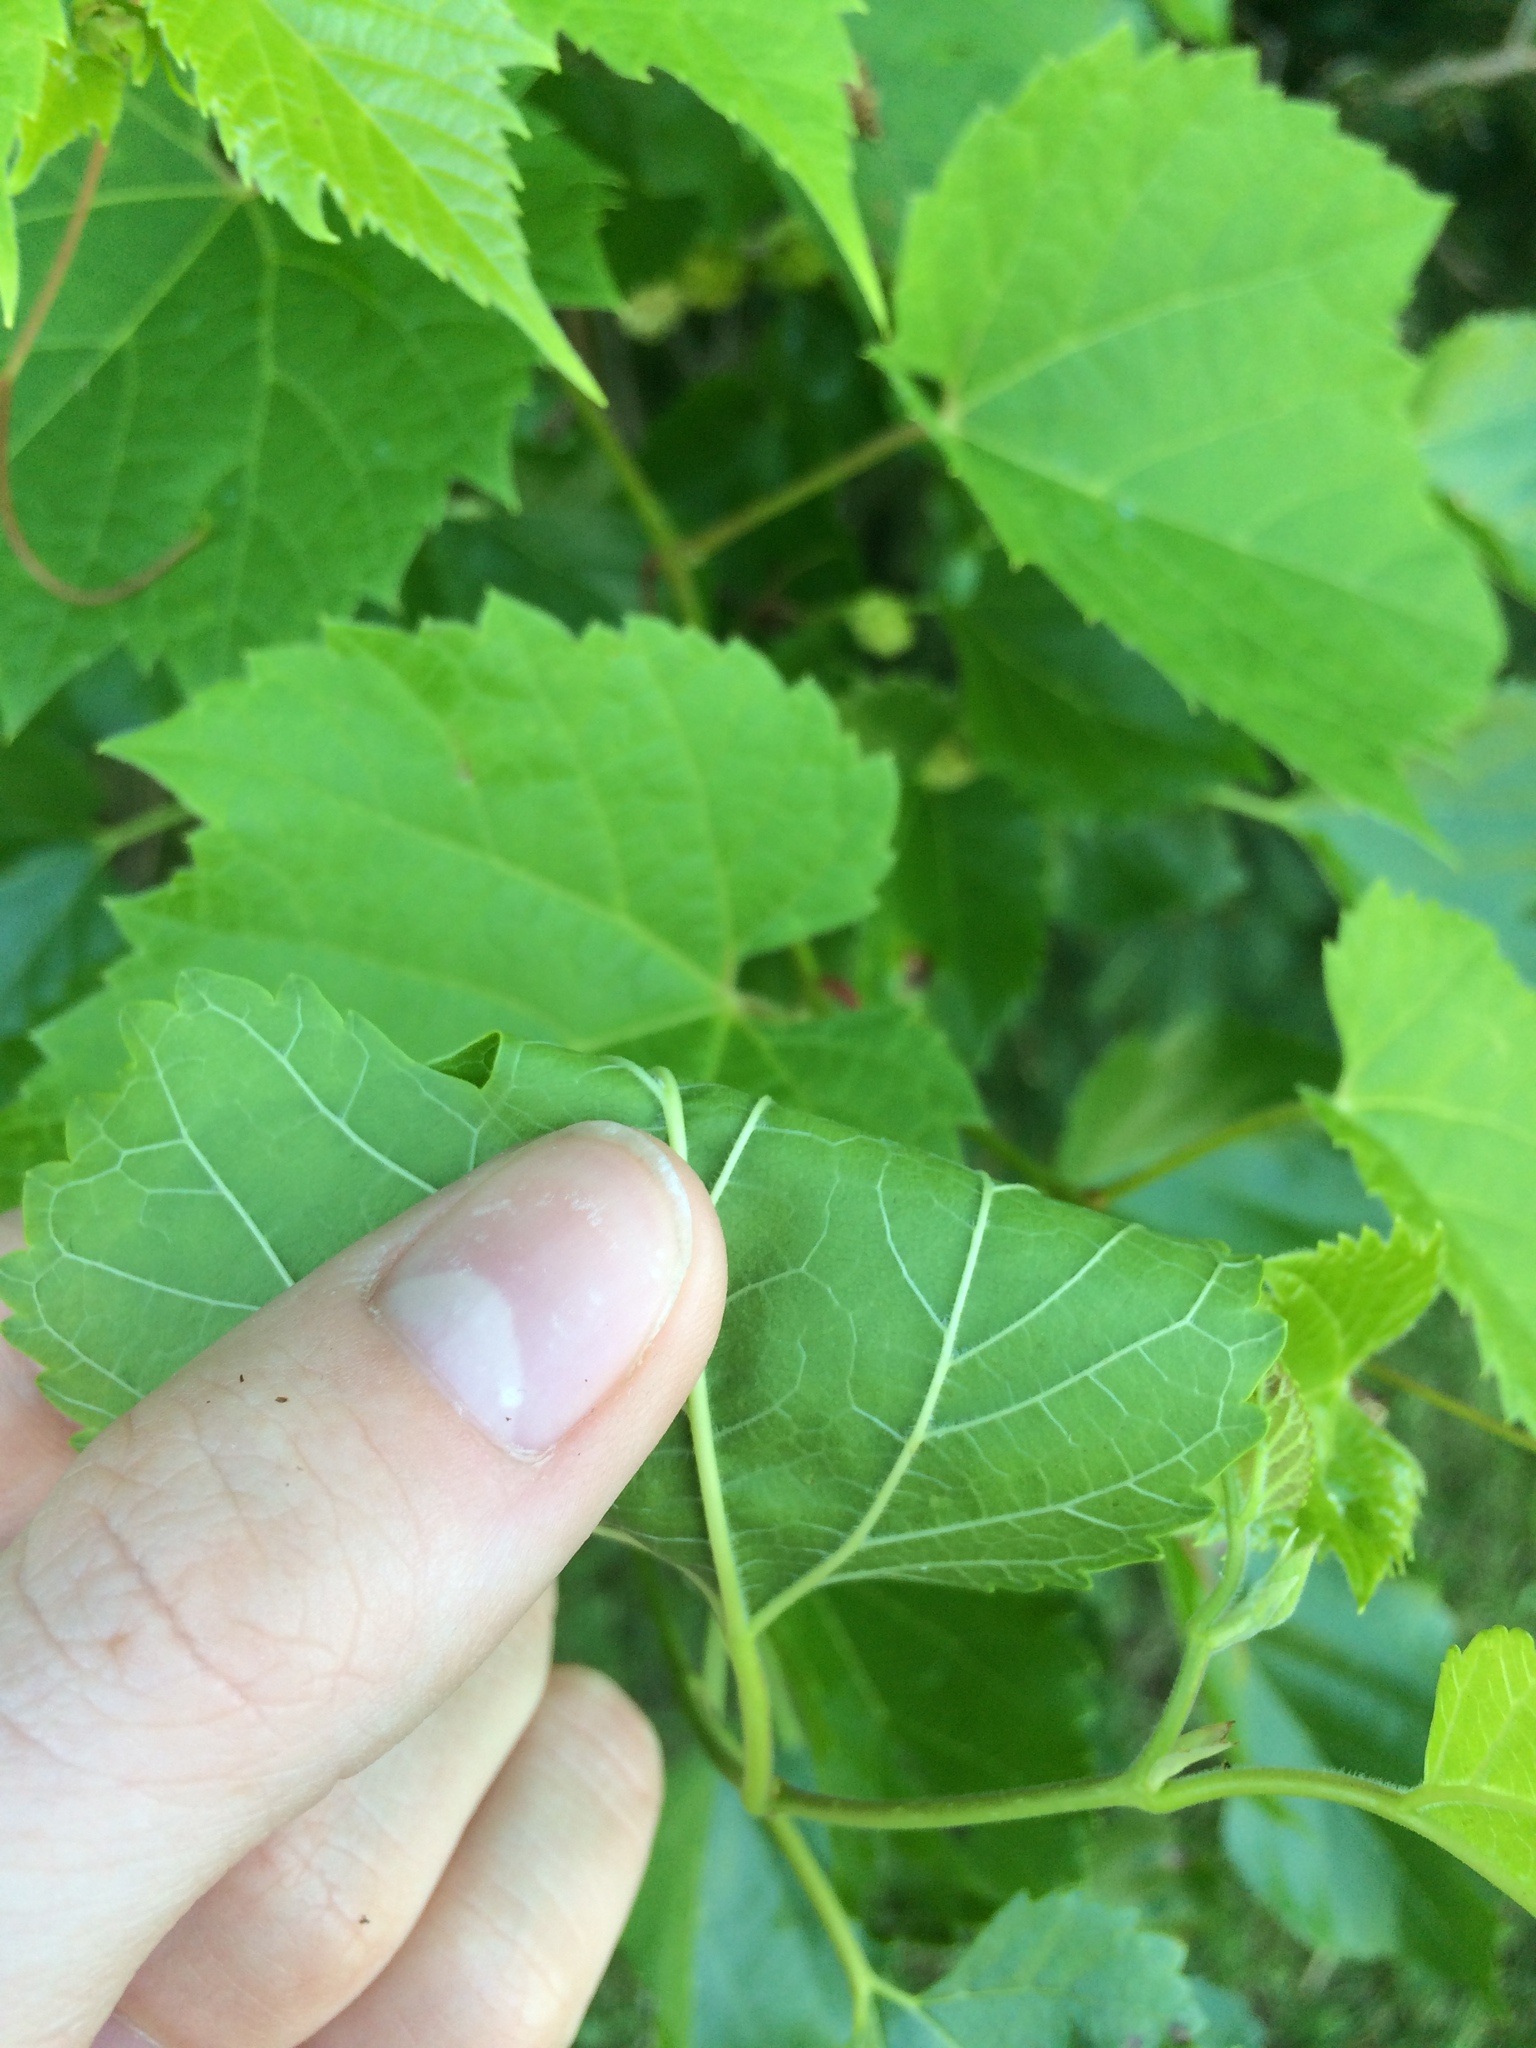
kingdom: Plantae
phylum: Tracheophyta
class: Magnoliopsida
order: Rosales
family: Moraceae
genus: Morus
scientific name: Morus alba
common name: White mulberry
